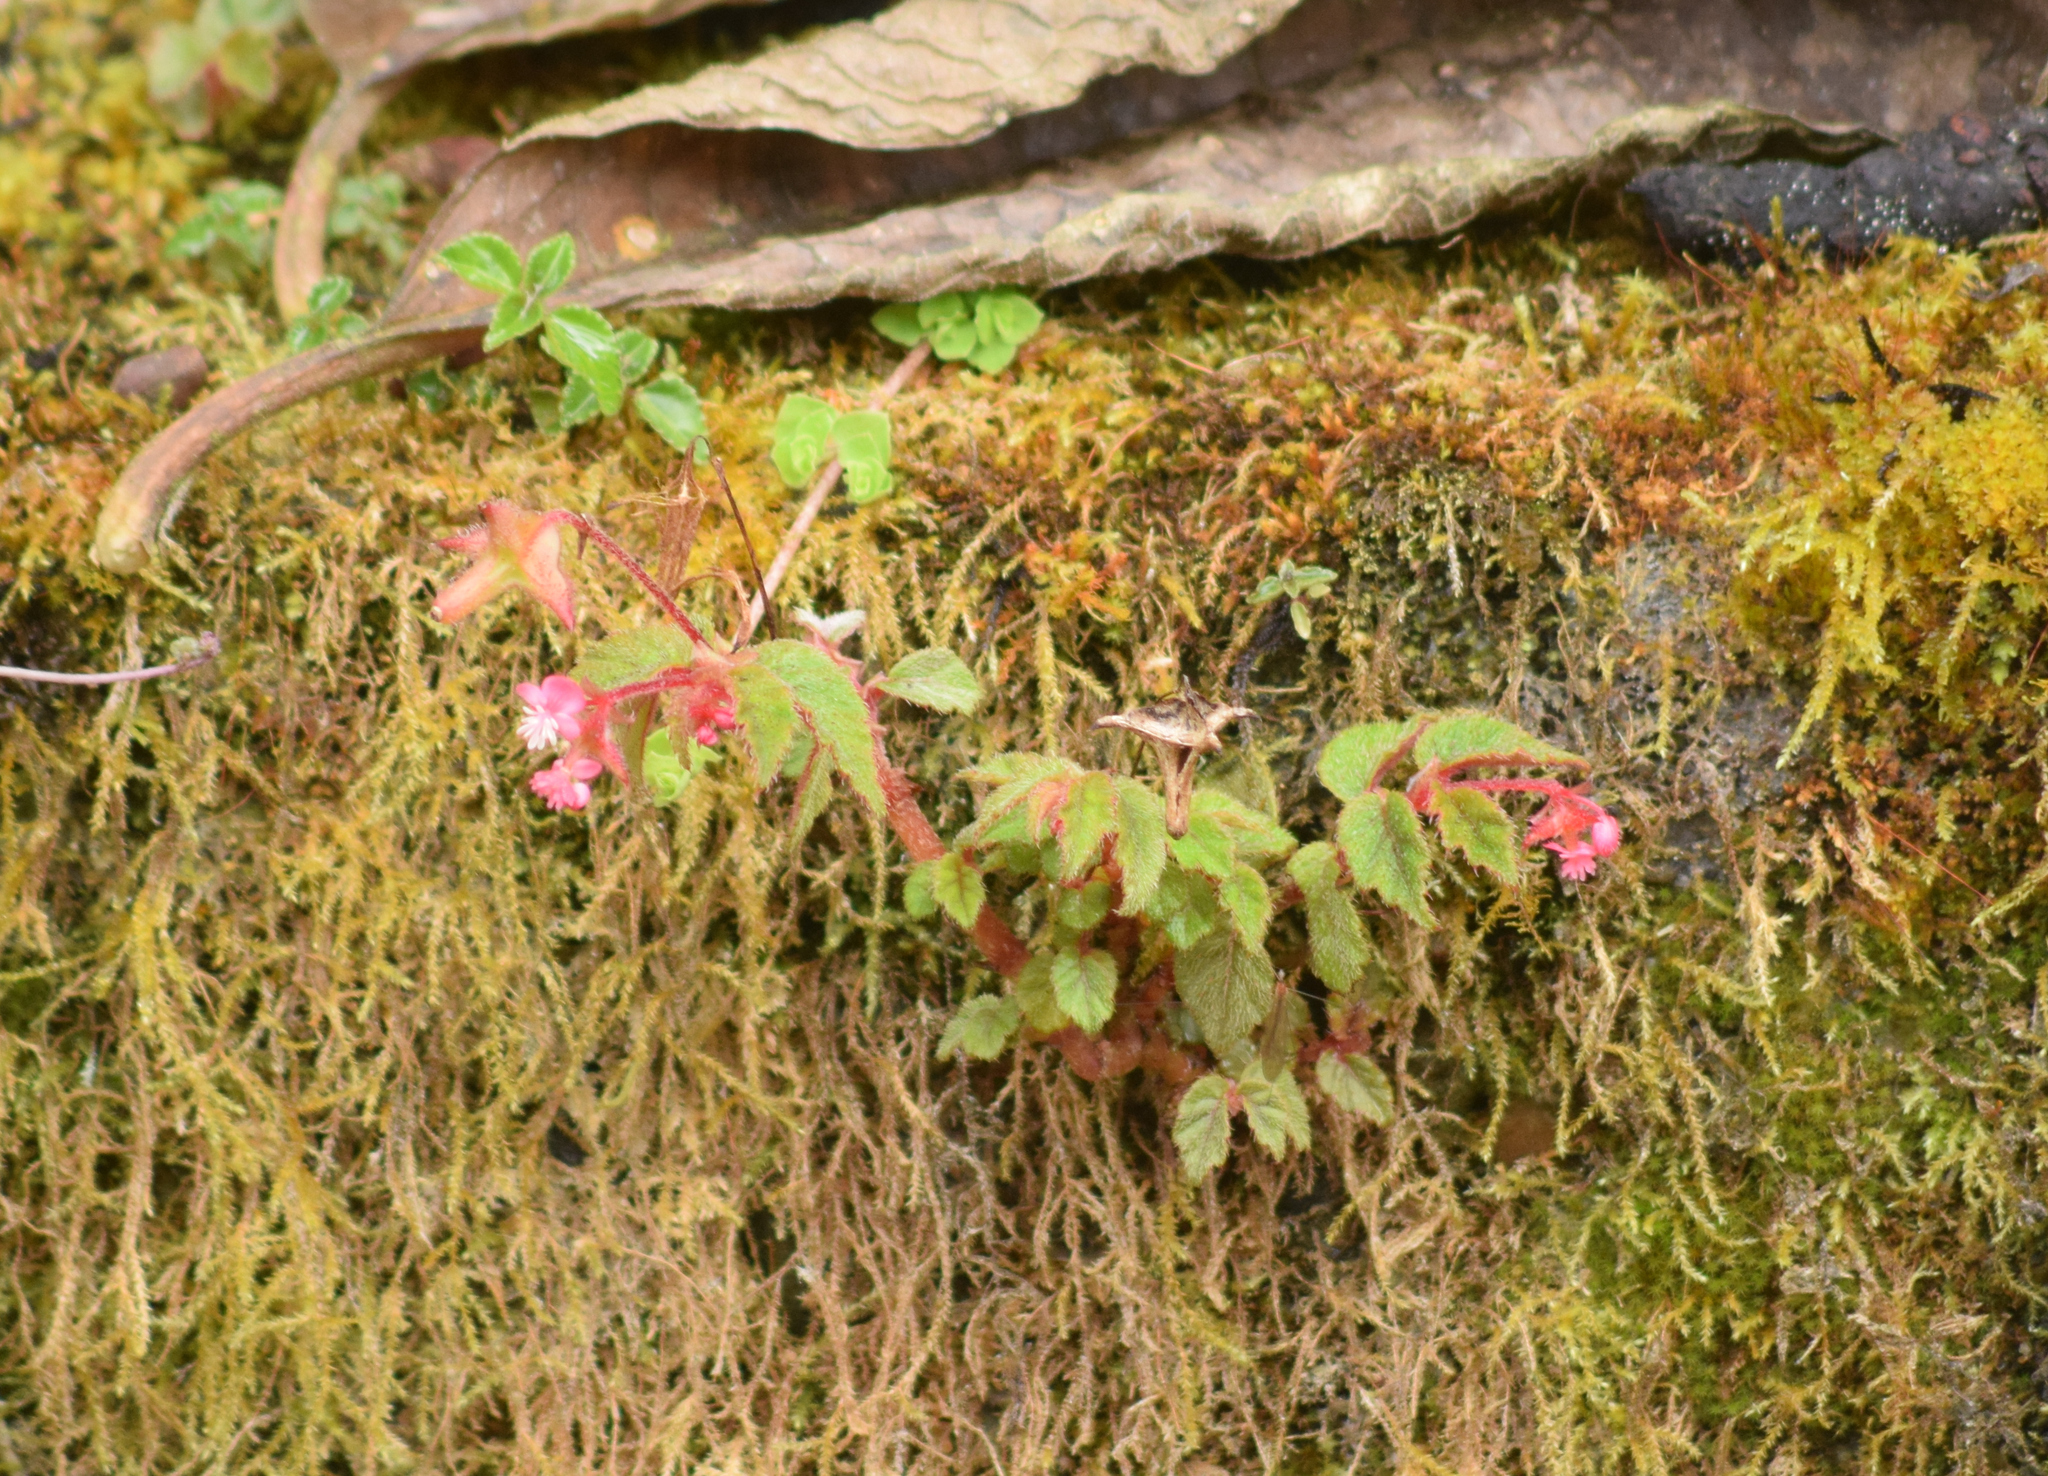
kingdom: Plantae
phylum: Tracheophyta
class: Magnoliopsida
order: Cucurbitales
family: Begoniaceae
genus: Begonia
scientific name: Begonia urticae
